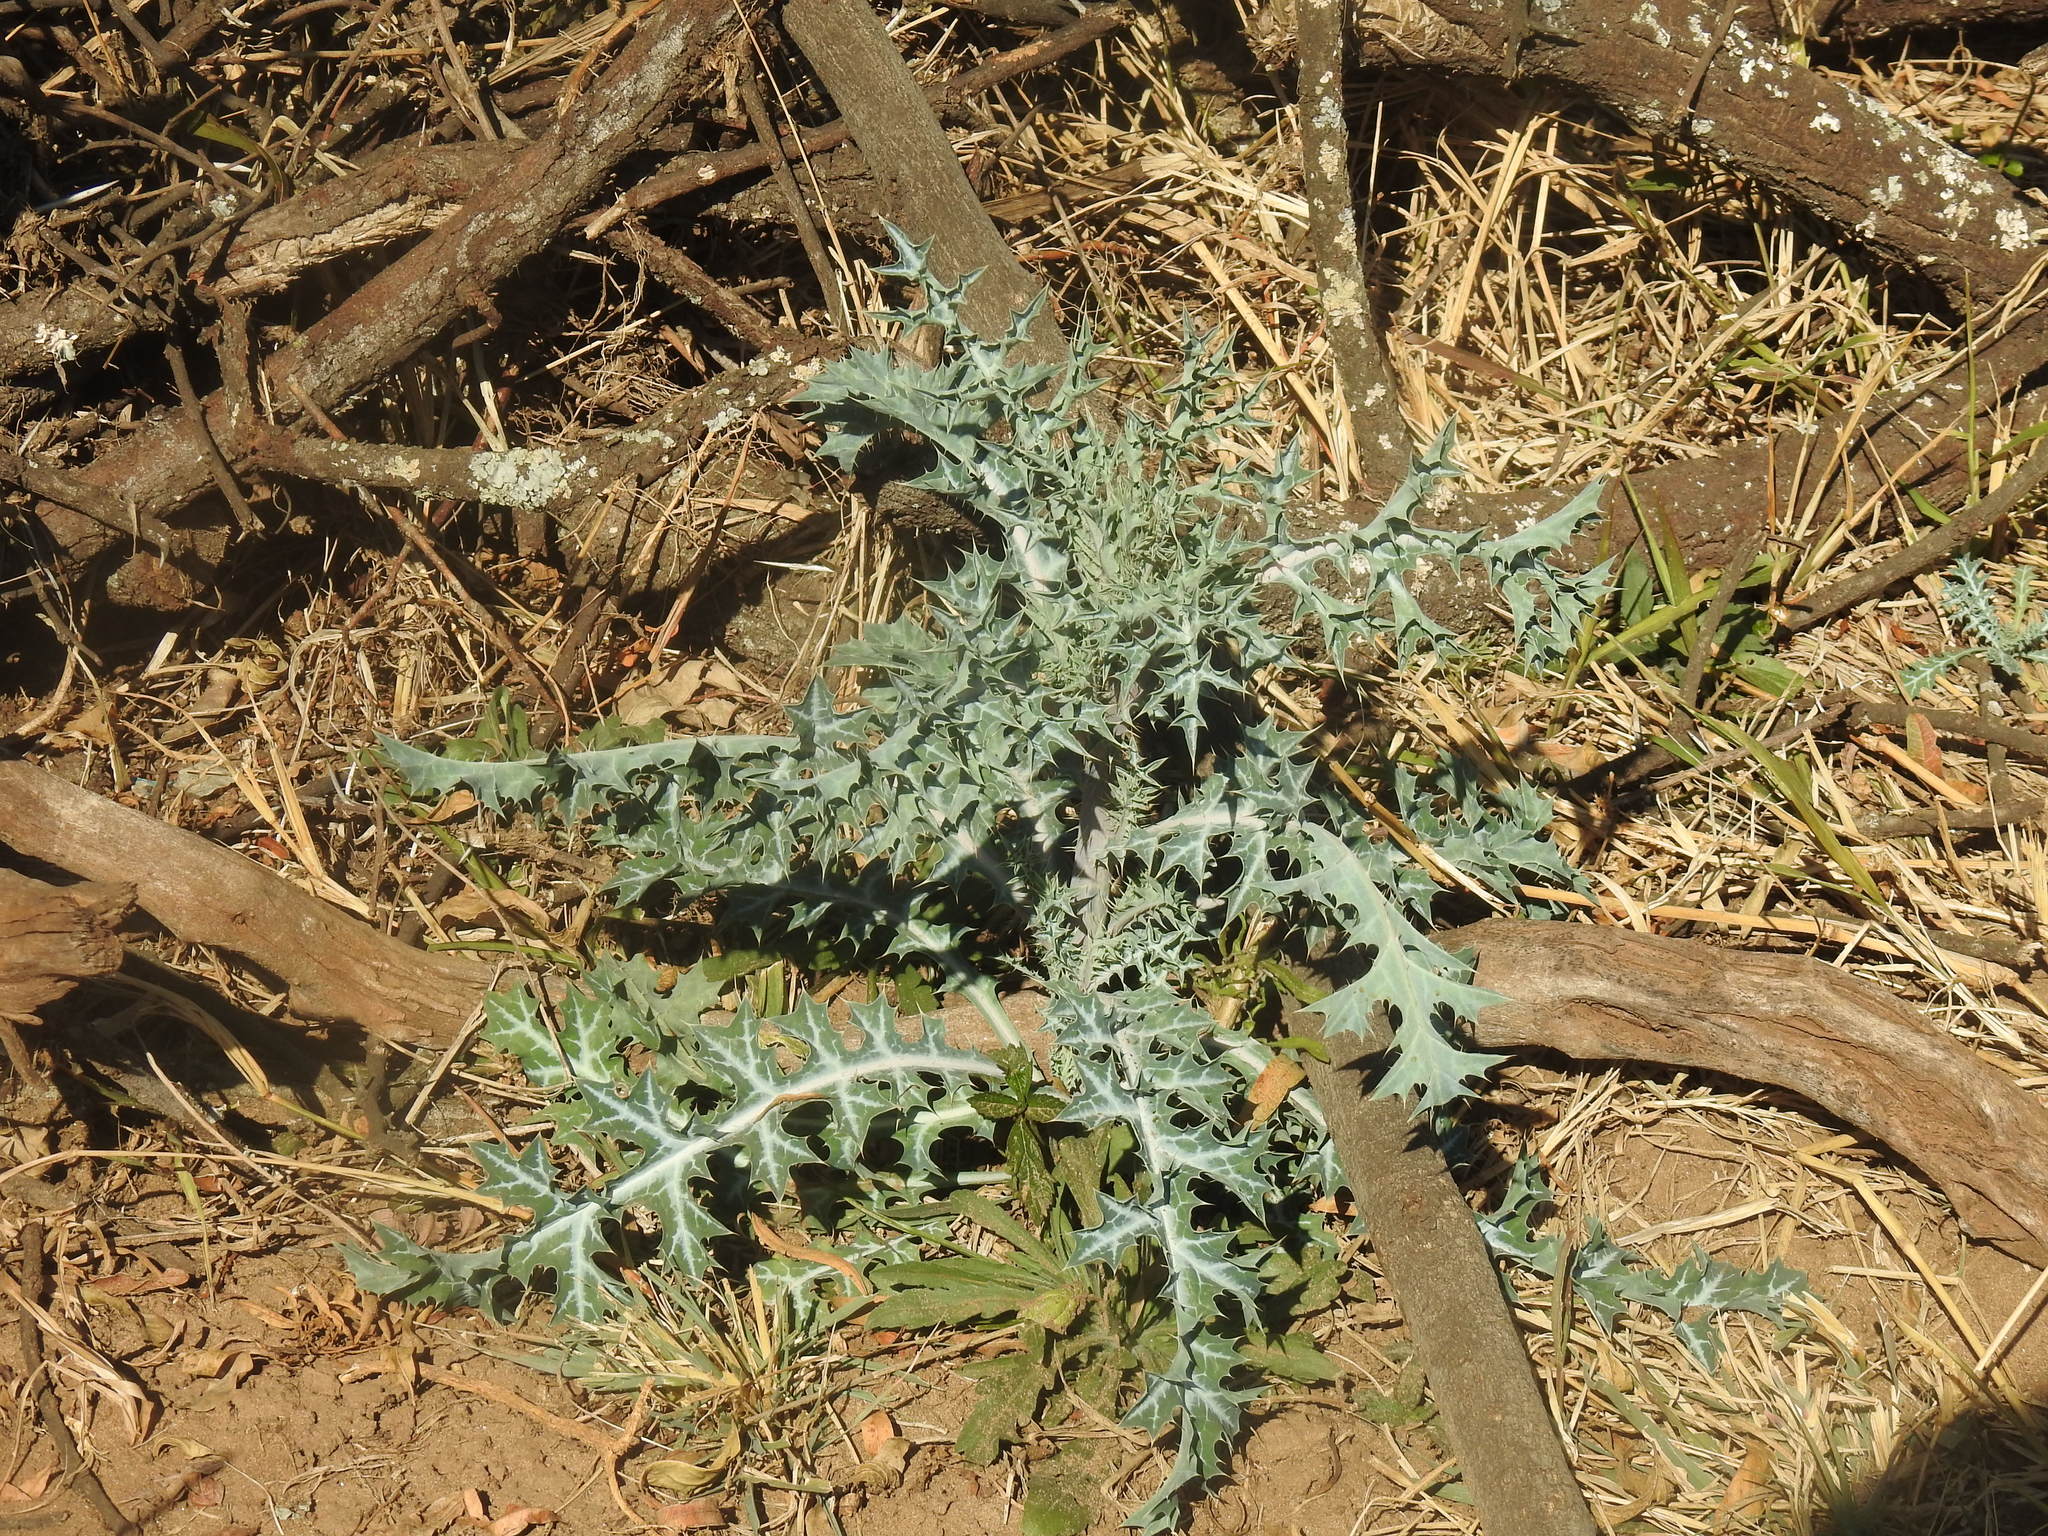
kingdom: Plantae
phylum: Tracheophyta
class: Magnoliopsida
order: Ranunculales
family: Papaveraceae
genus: Argemone
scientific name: Argemone ochroleuca
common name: White-flower mexican-poppy
